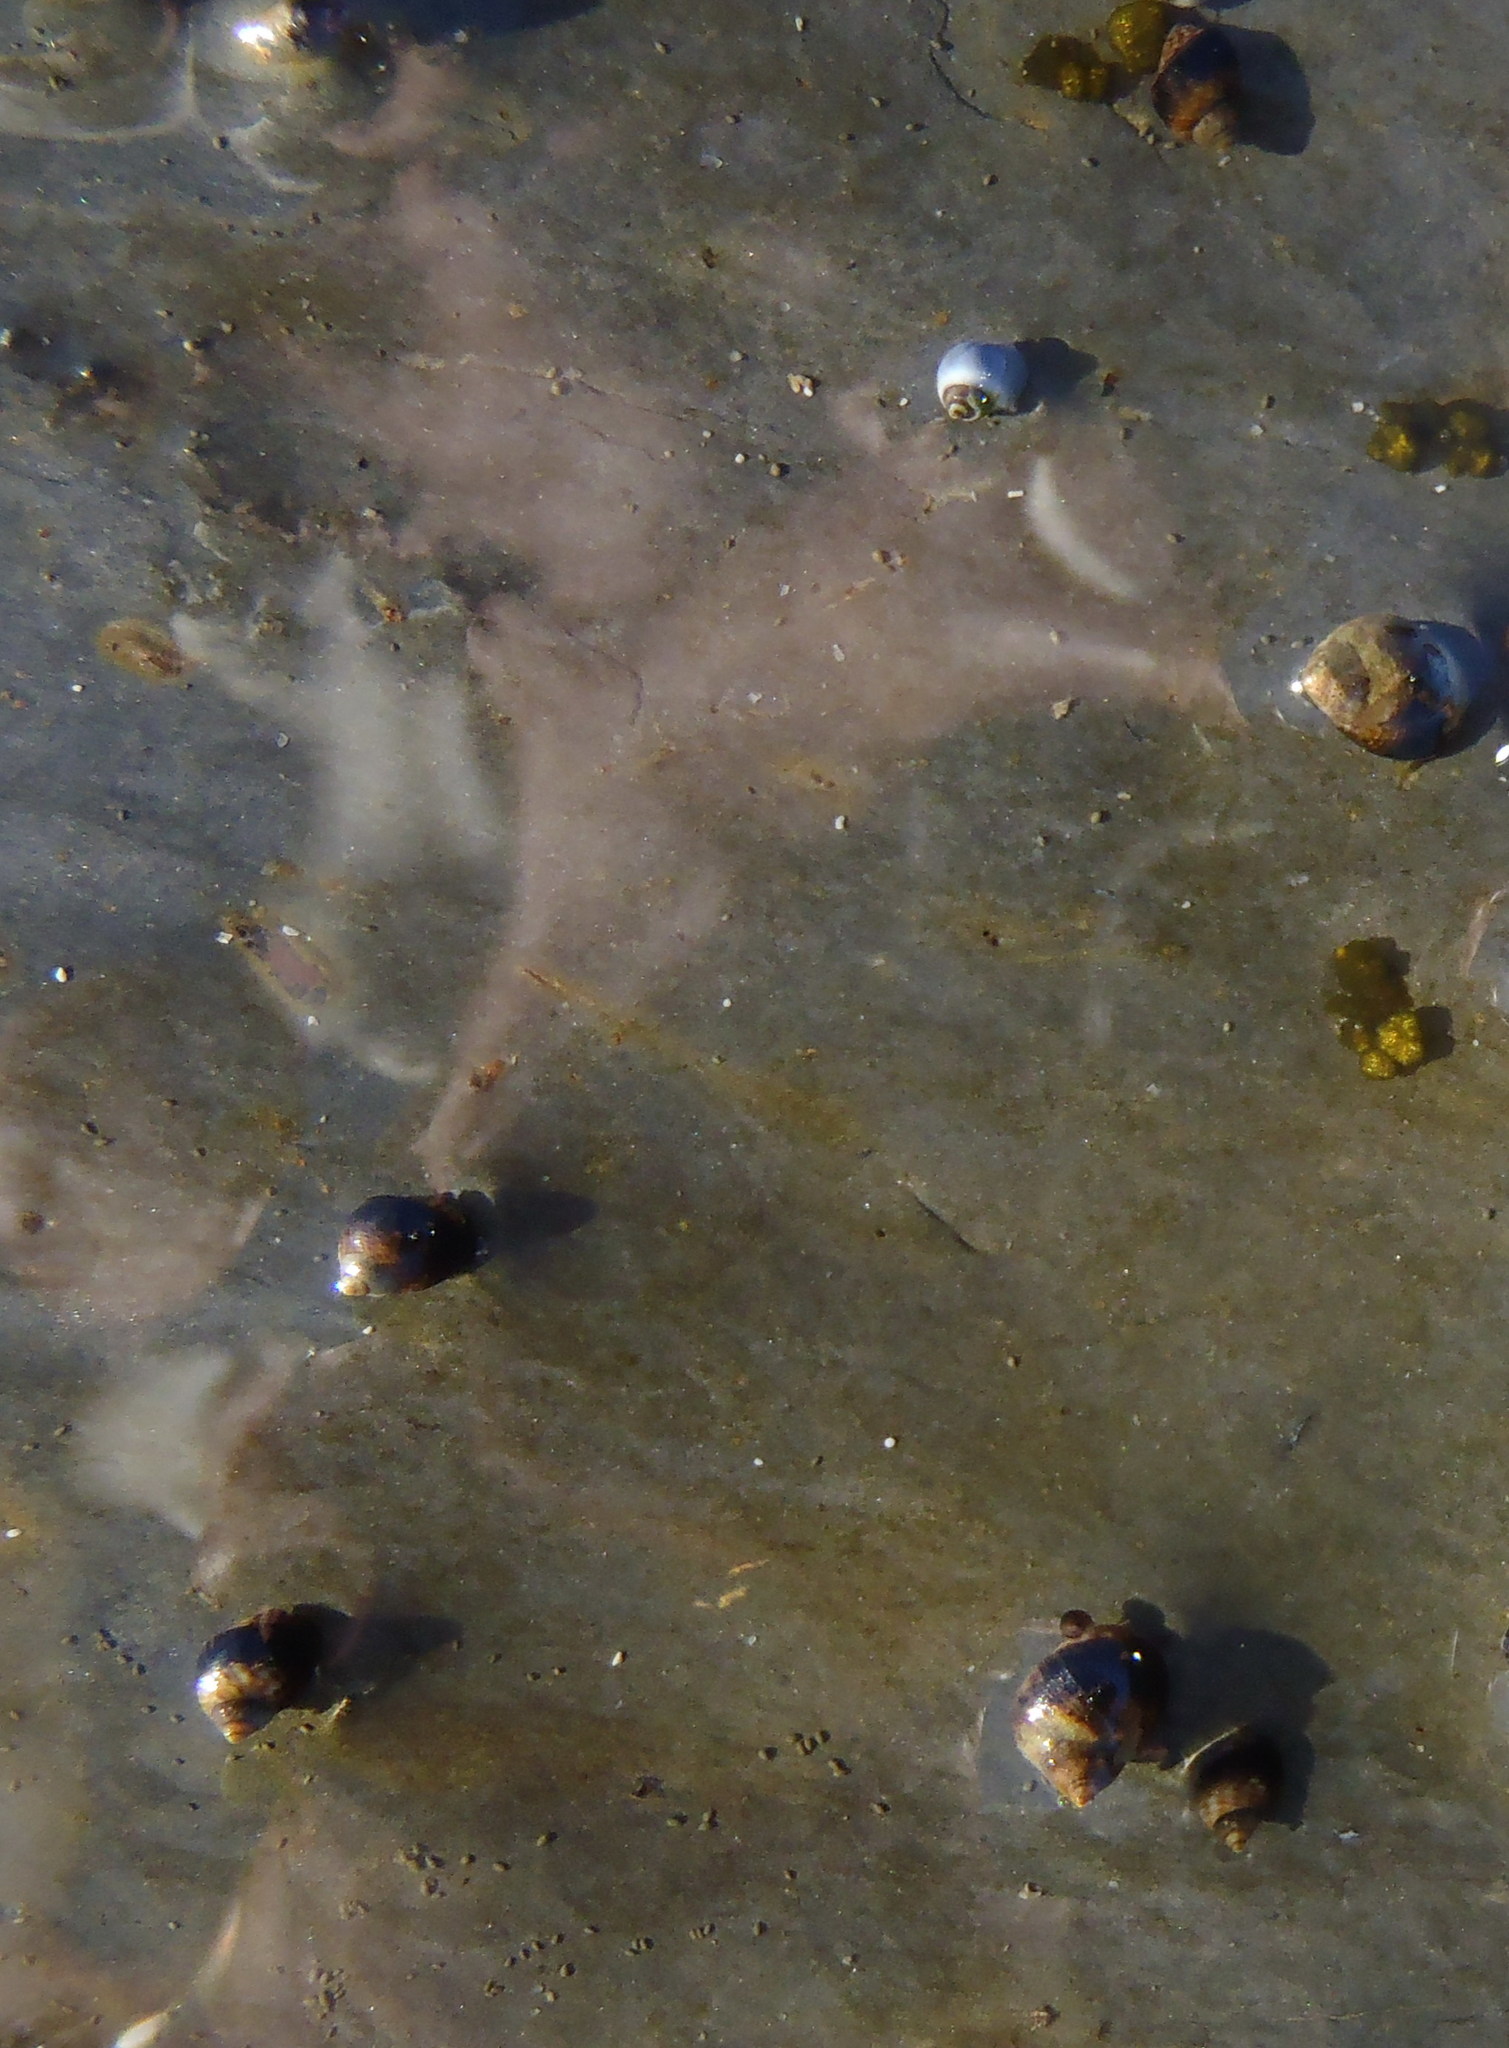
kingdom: Animalia
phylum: Mollusca
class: Gastropoda
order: Littorinimorpha
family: Littorinidae
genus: Afrolittorina
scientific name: Afrolittorina knysnaensis
